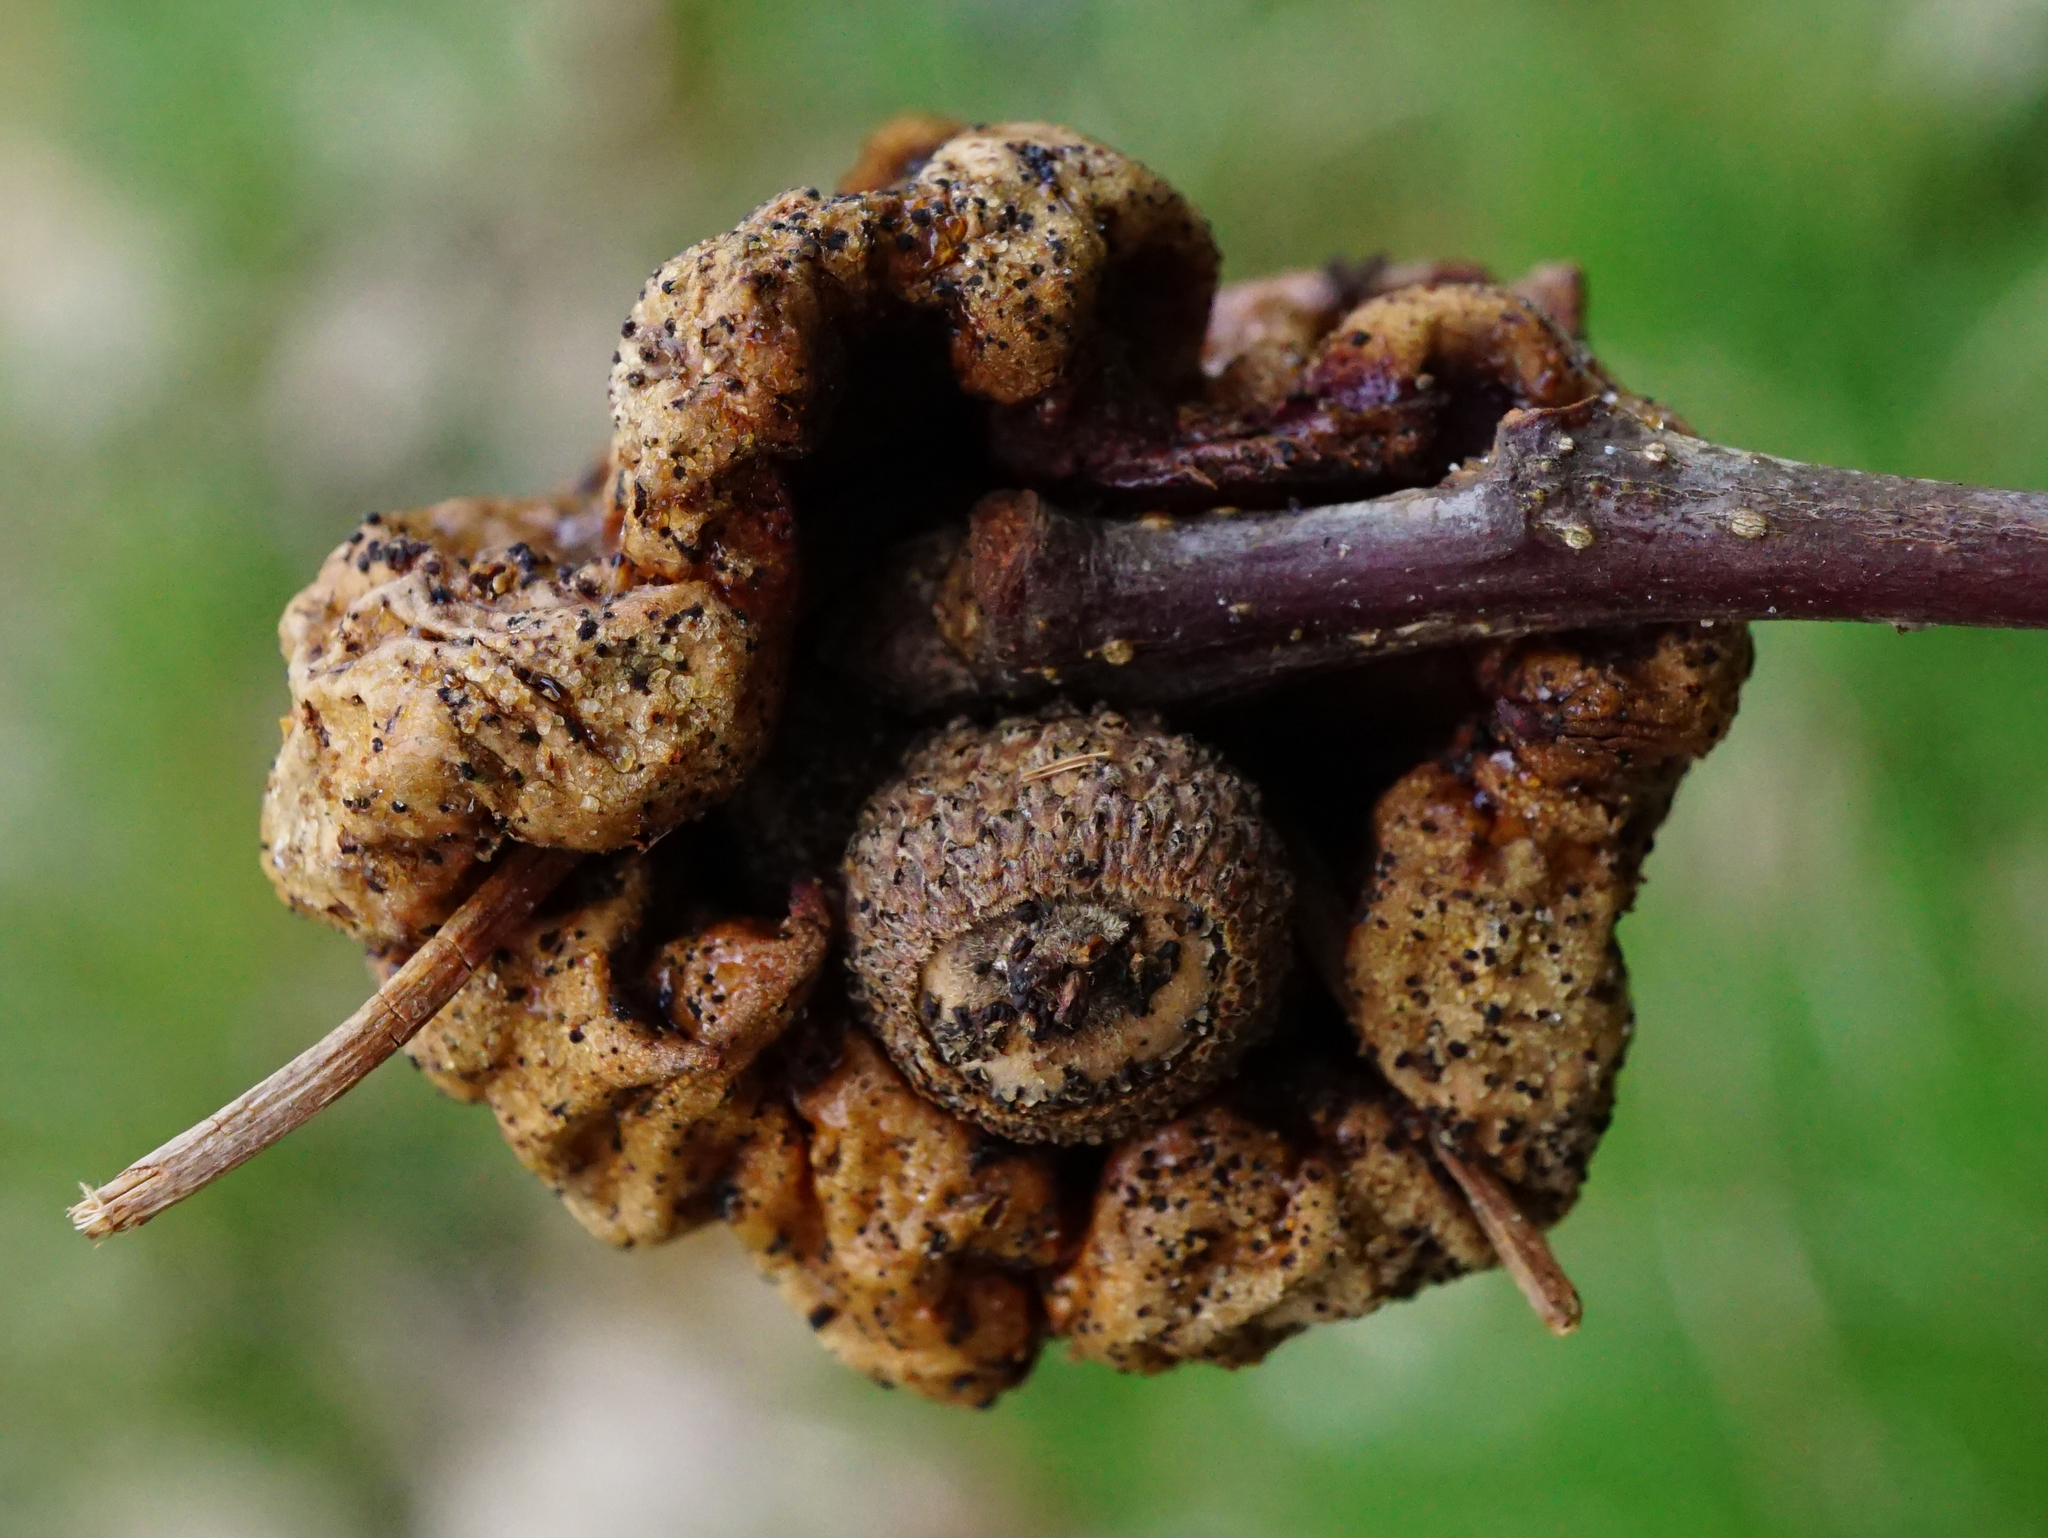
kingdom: Animalia
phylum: Arthropoda
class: Insecta
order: Hymenoptera
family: Cynipidae
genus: Andricus
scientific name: Andricus dentimitratus
